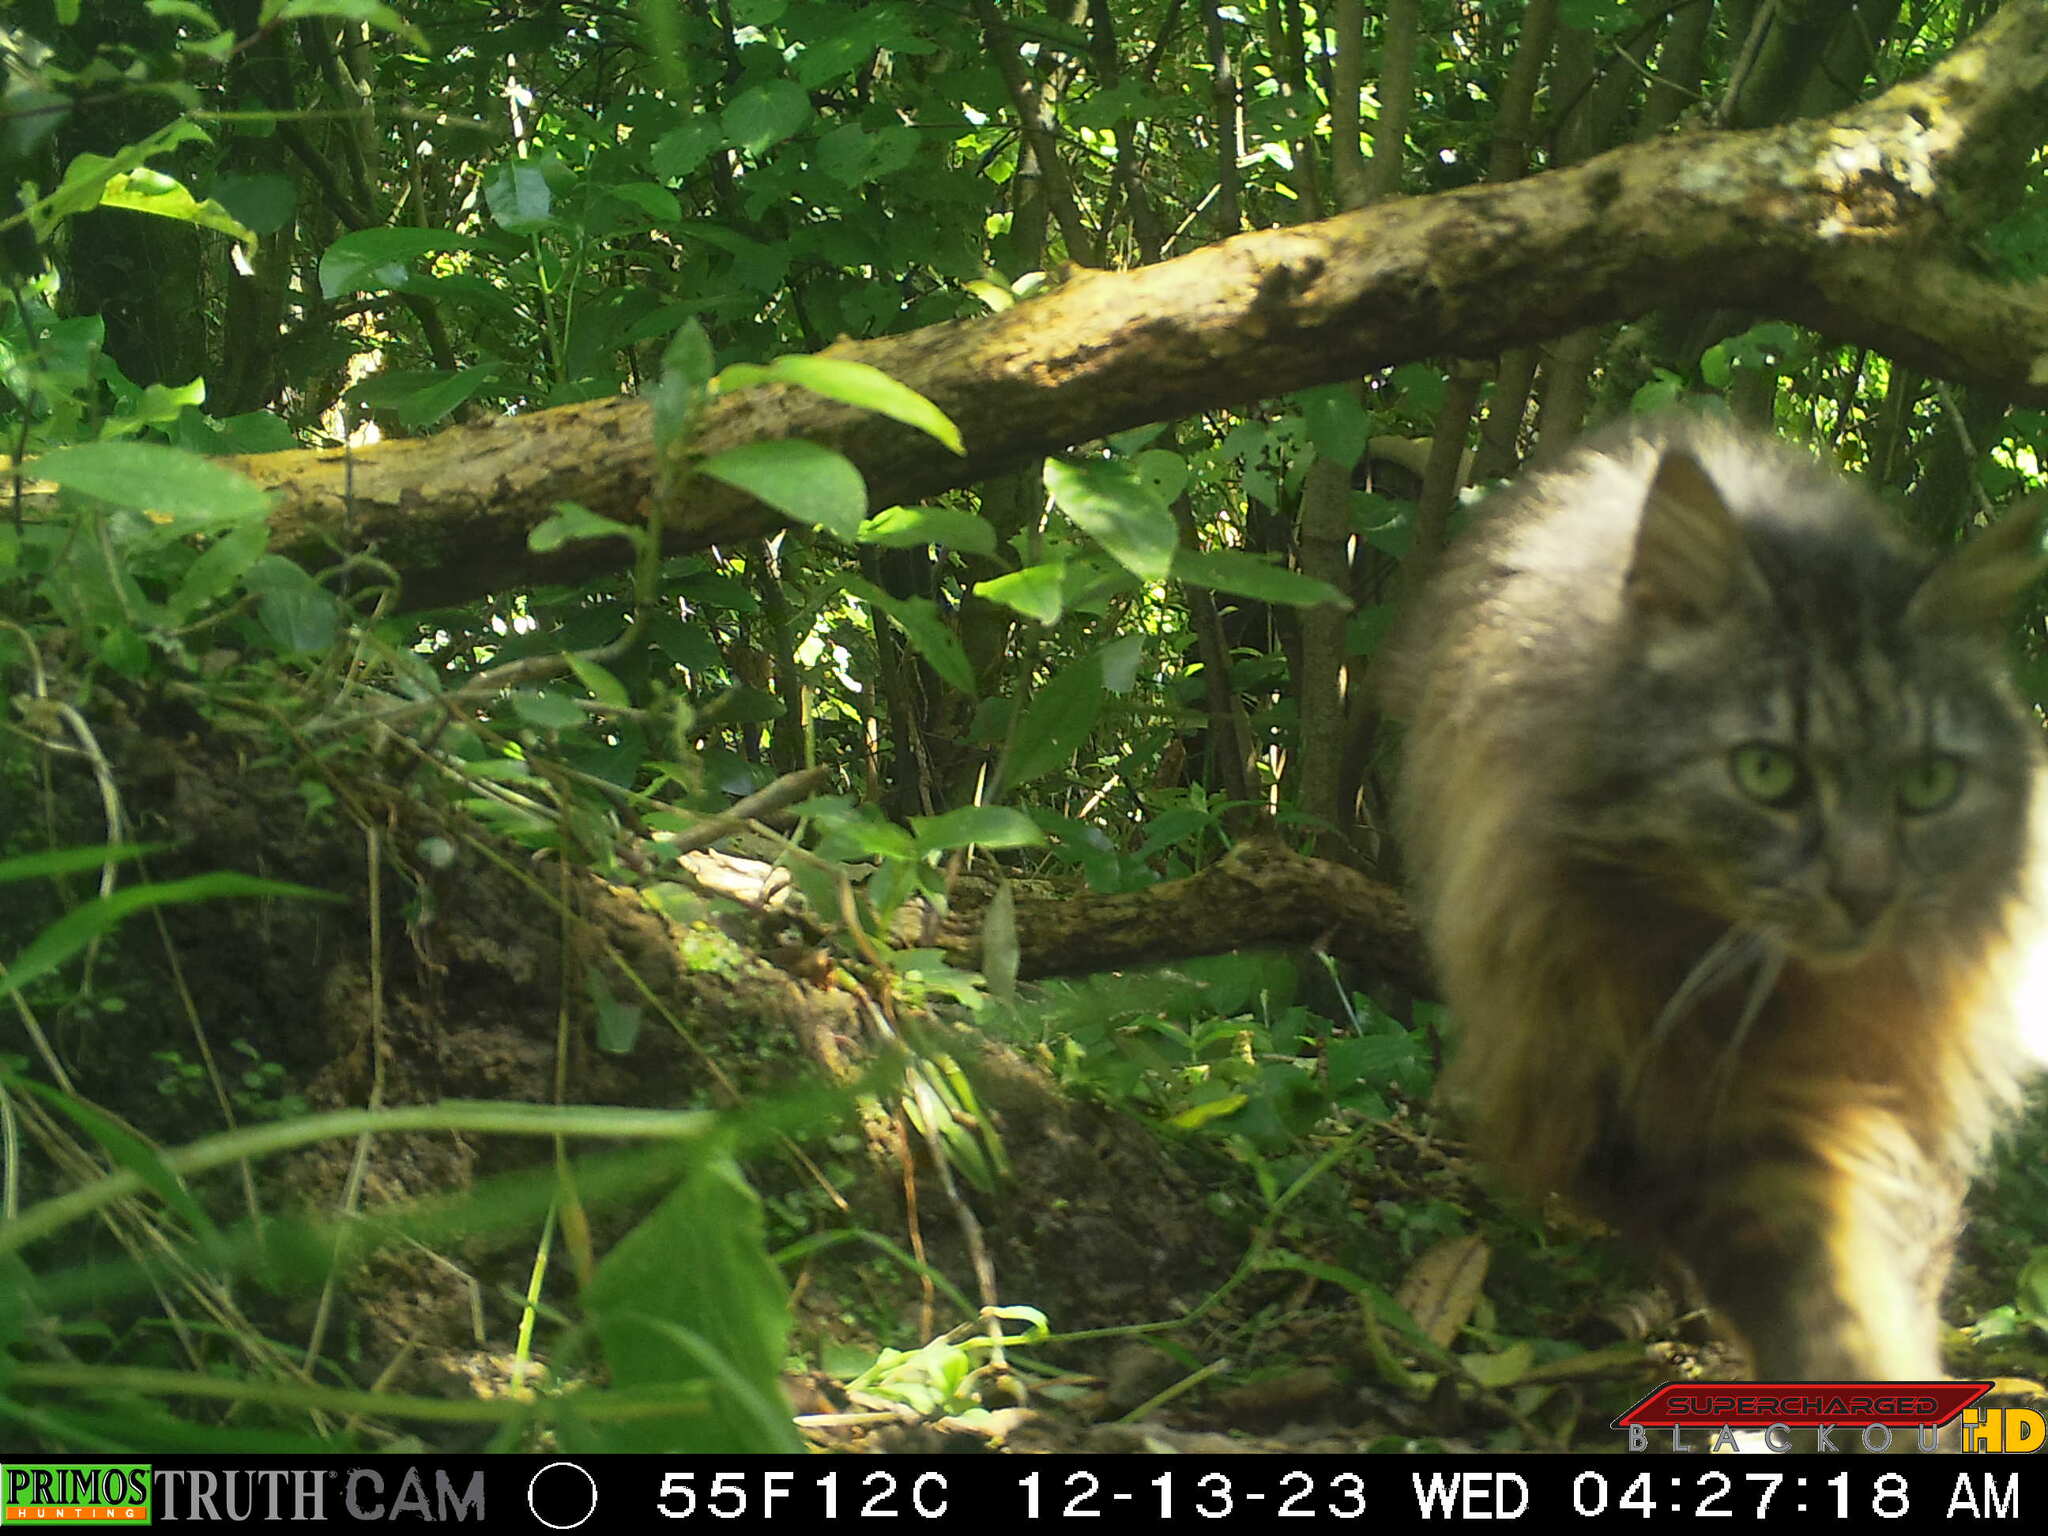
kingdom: Animalia
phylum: Chordata
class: Mammalia
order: Carnivora
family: Felidae
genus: Felis
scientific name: Felis catus
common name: Domestic cat
